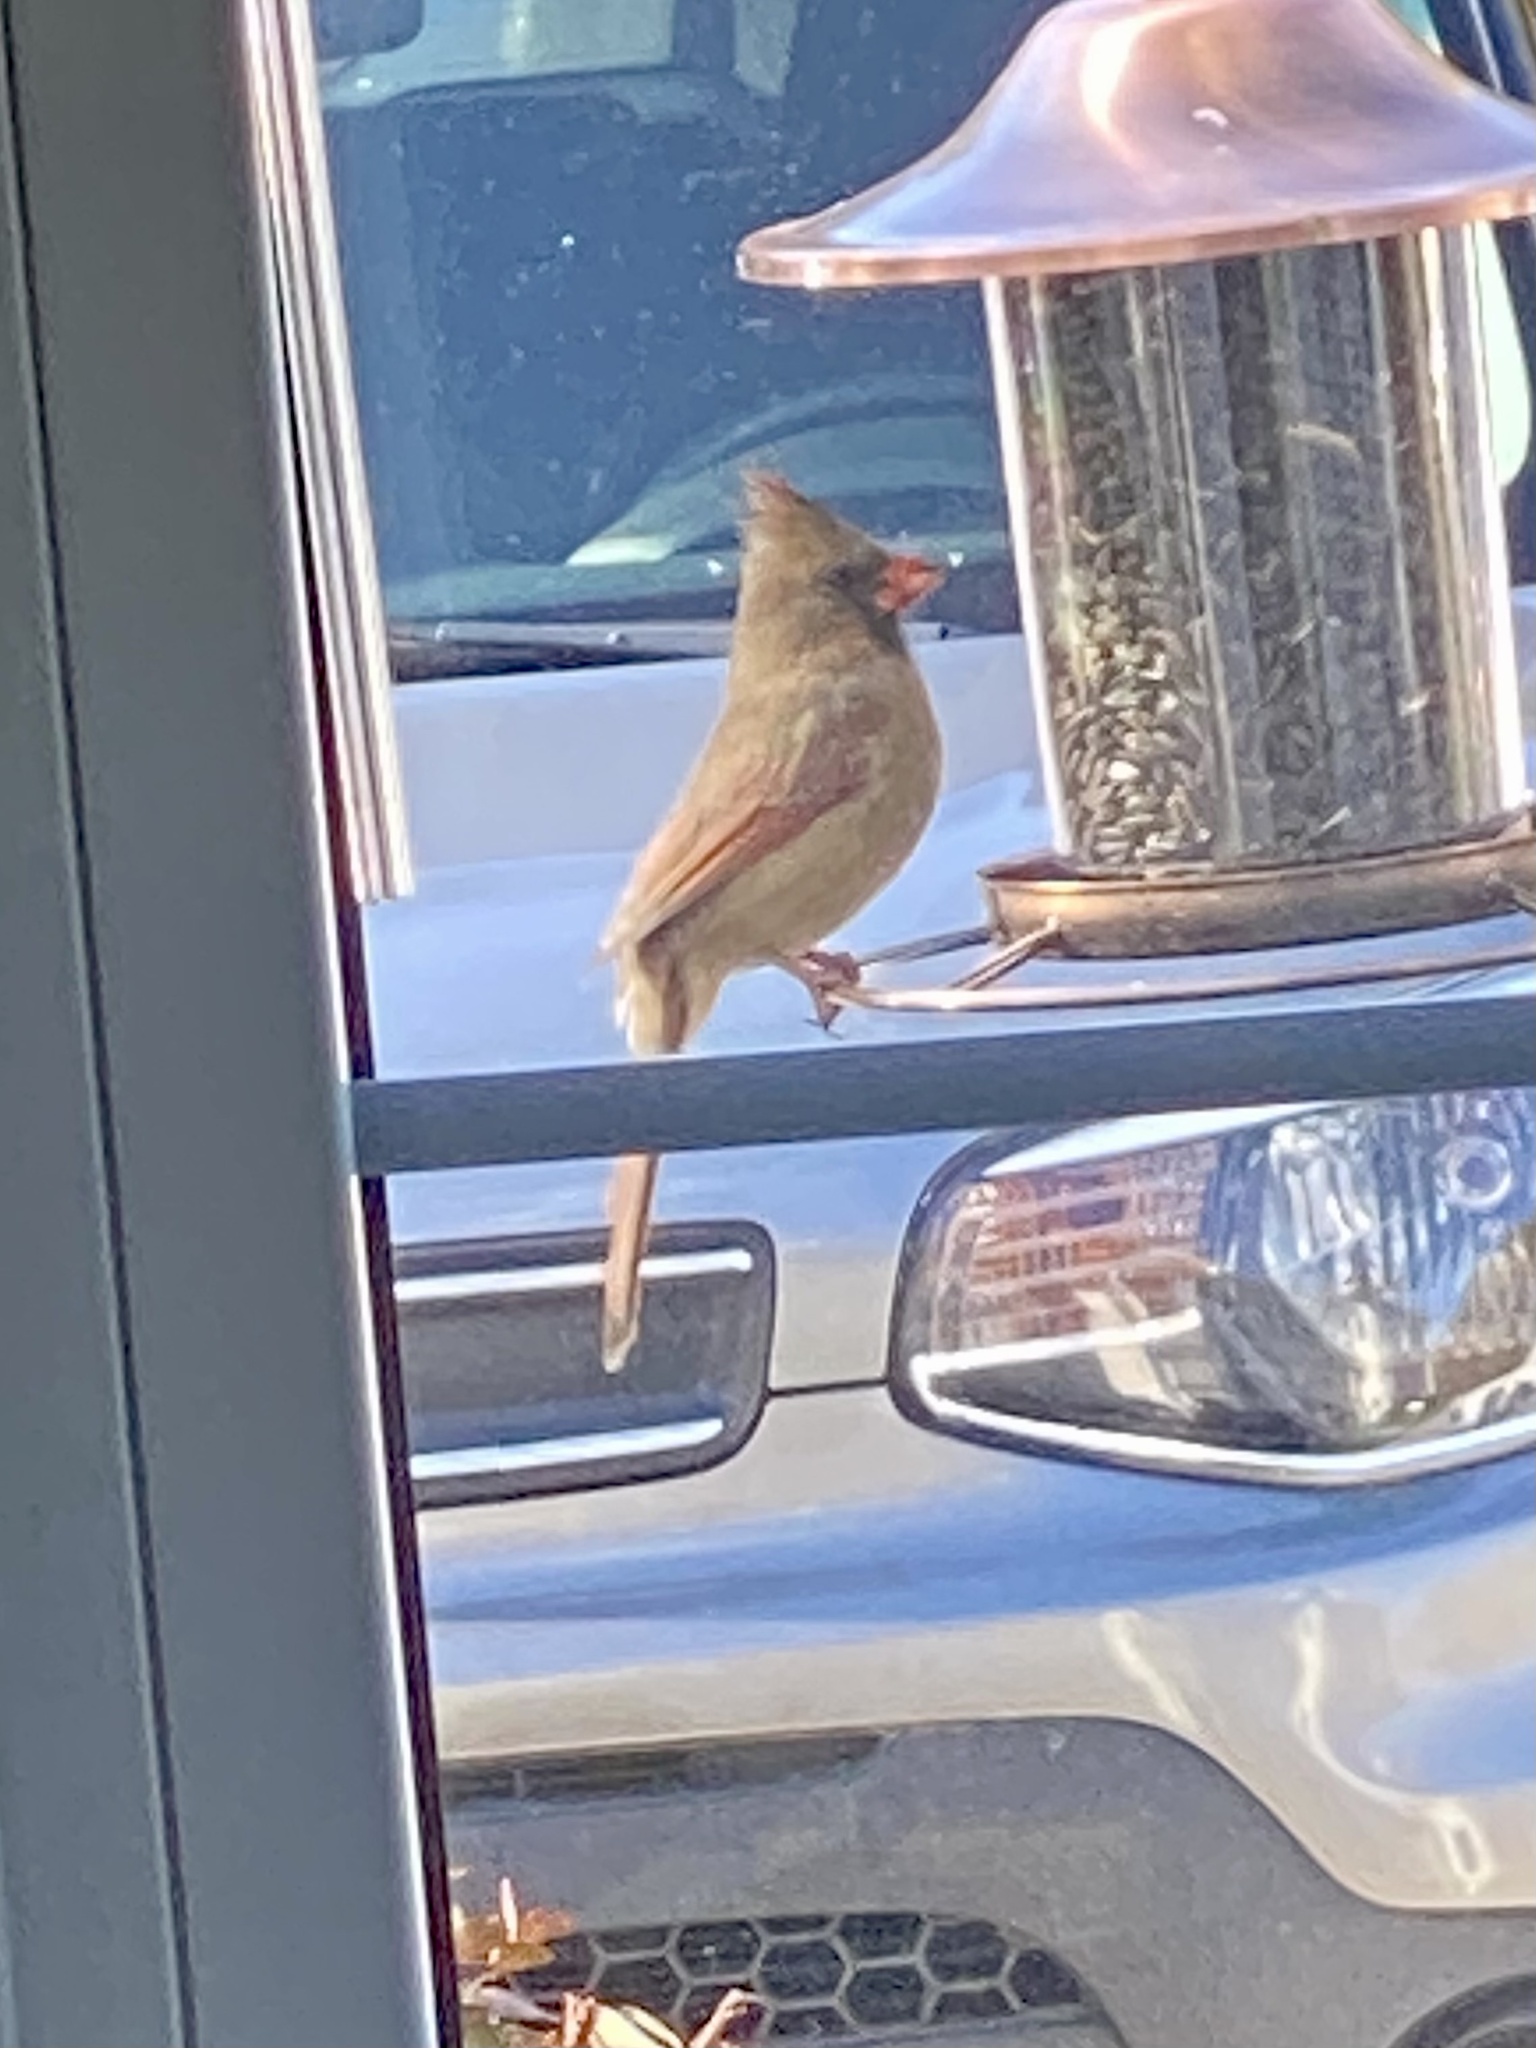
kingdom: Animalia
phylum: Chordata
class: Aves
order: Passeriformes
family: Cardinalidae
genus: Cardinalis
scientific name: Cardinalis cardinalis
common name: Northern cardinal
